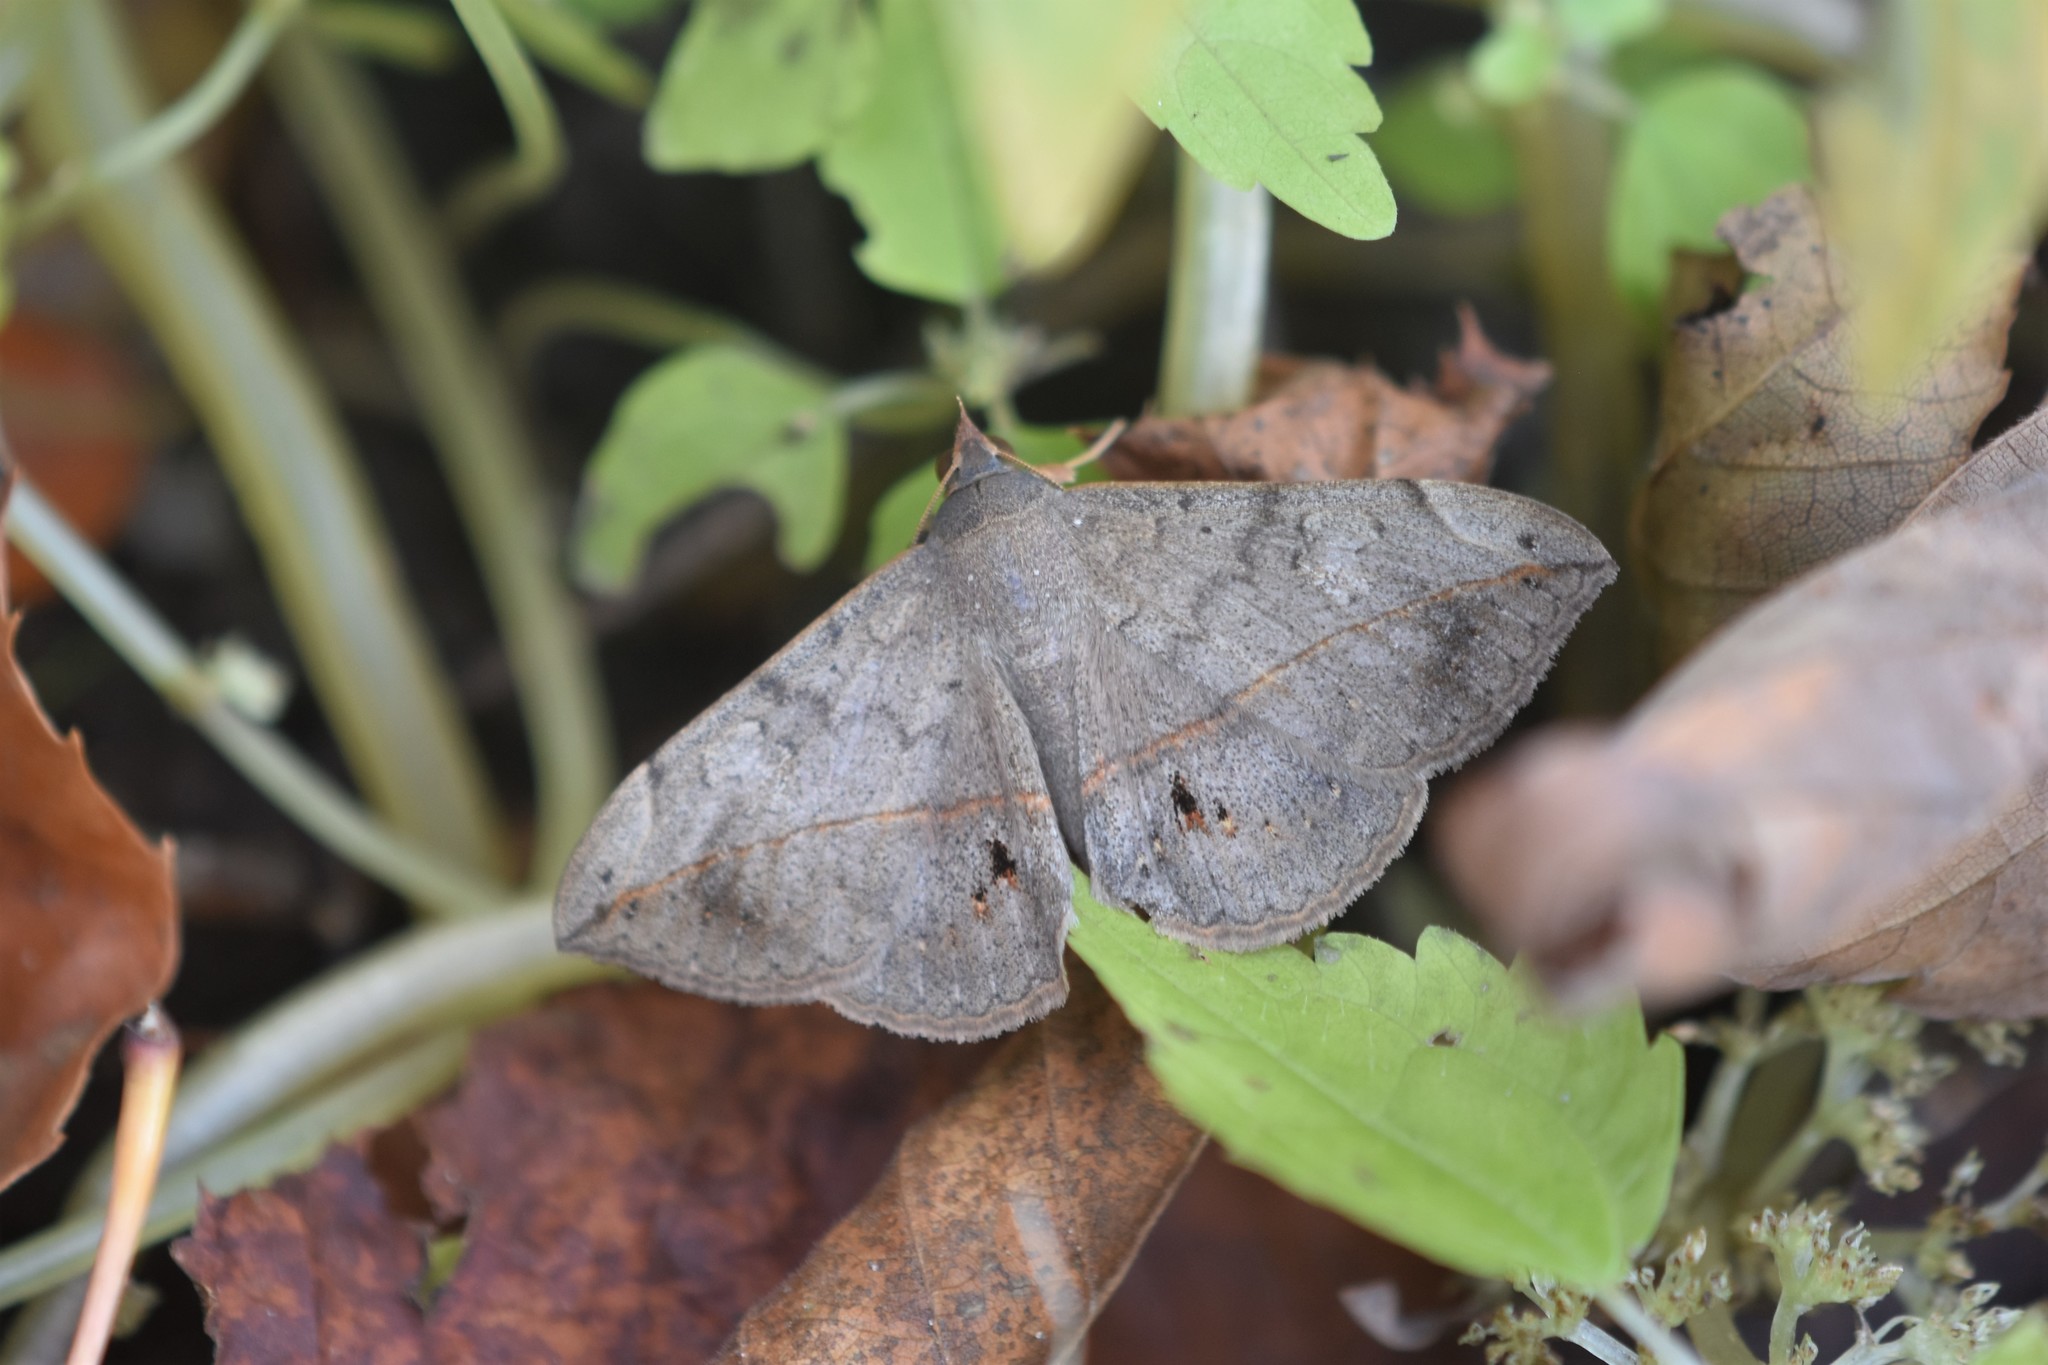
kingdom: Animalia
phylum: Arthropoda
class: Insecta
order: Lepidoptera
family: Erebidae
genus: Anticarsia
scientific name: Anticarsia gemmatalis
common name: Cutworm moth
